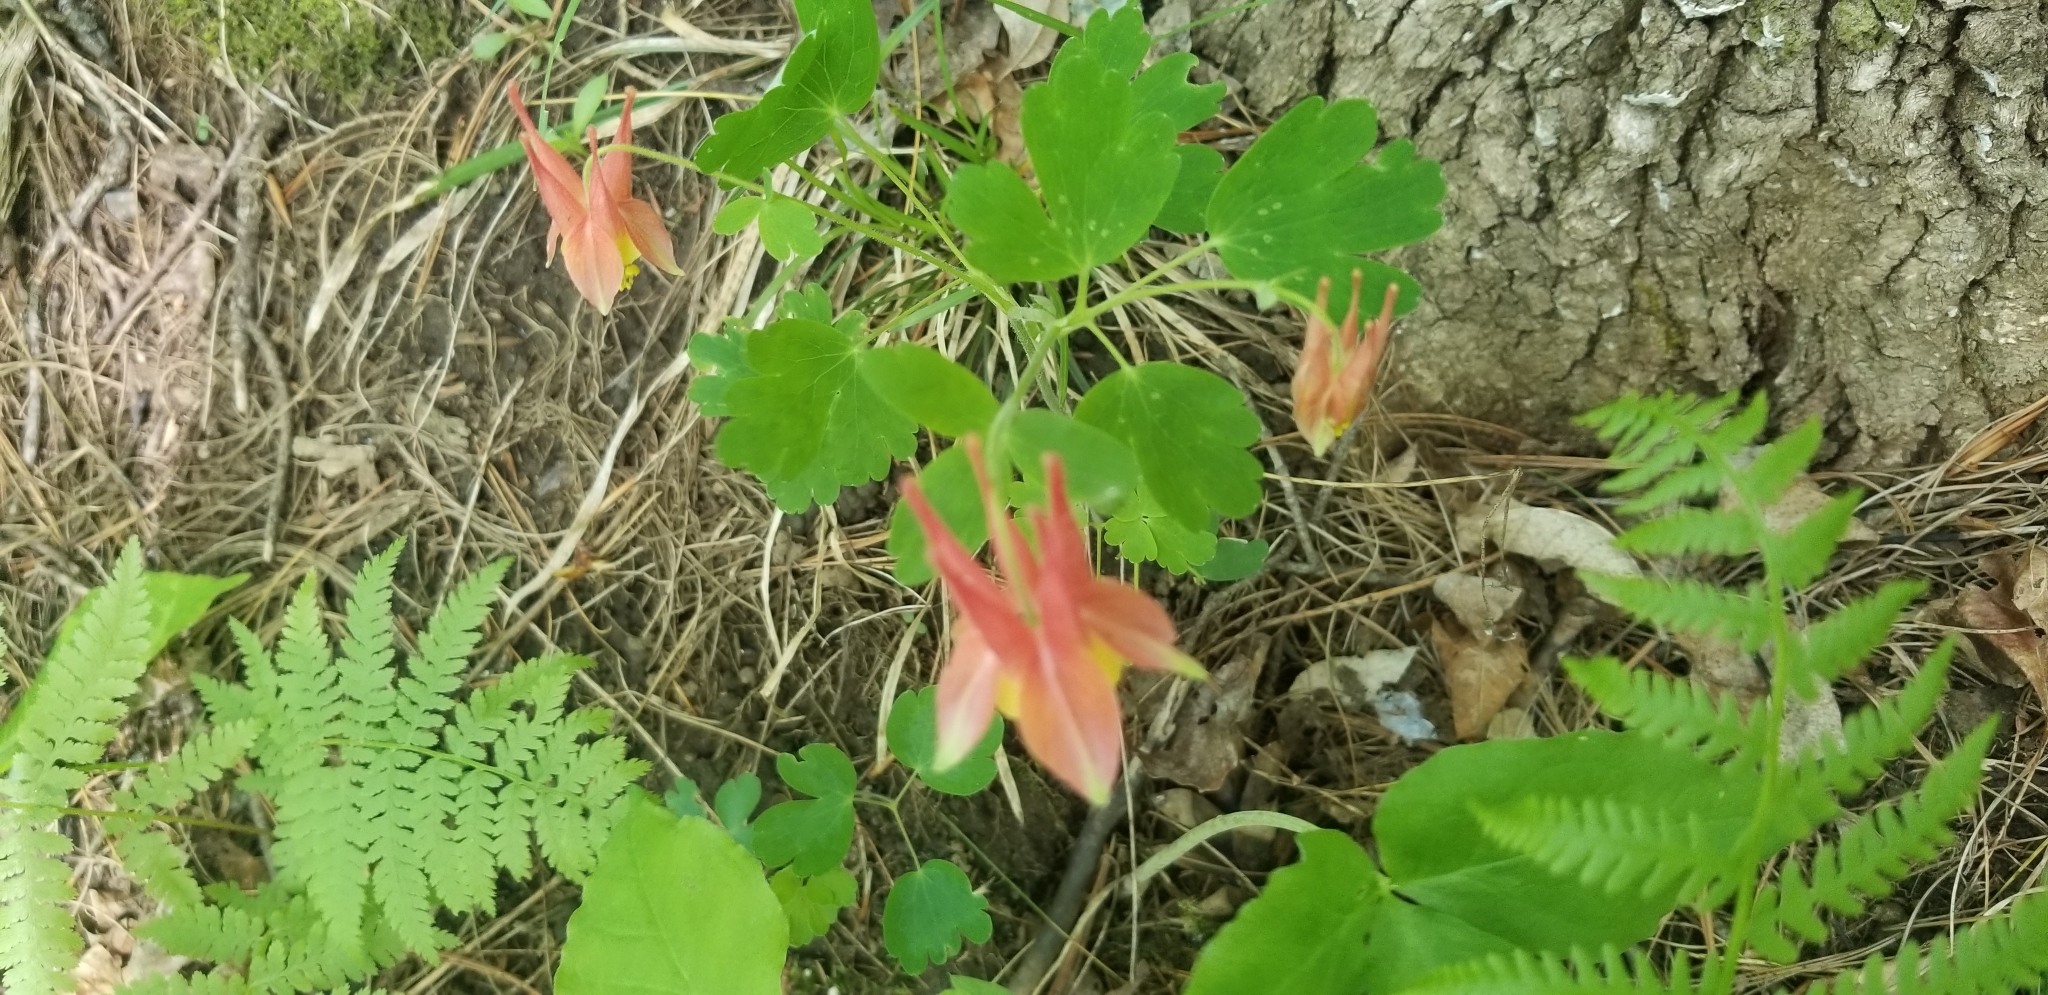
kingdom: Plantae
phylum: Tracheophyta
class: Magnoliopsida
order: Ranunculales
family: Ranunculaceae
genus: Aquilegia
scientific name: Aquilegia canadensis
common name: American columbine
